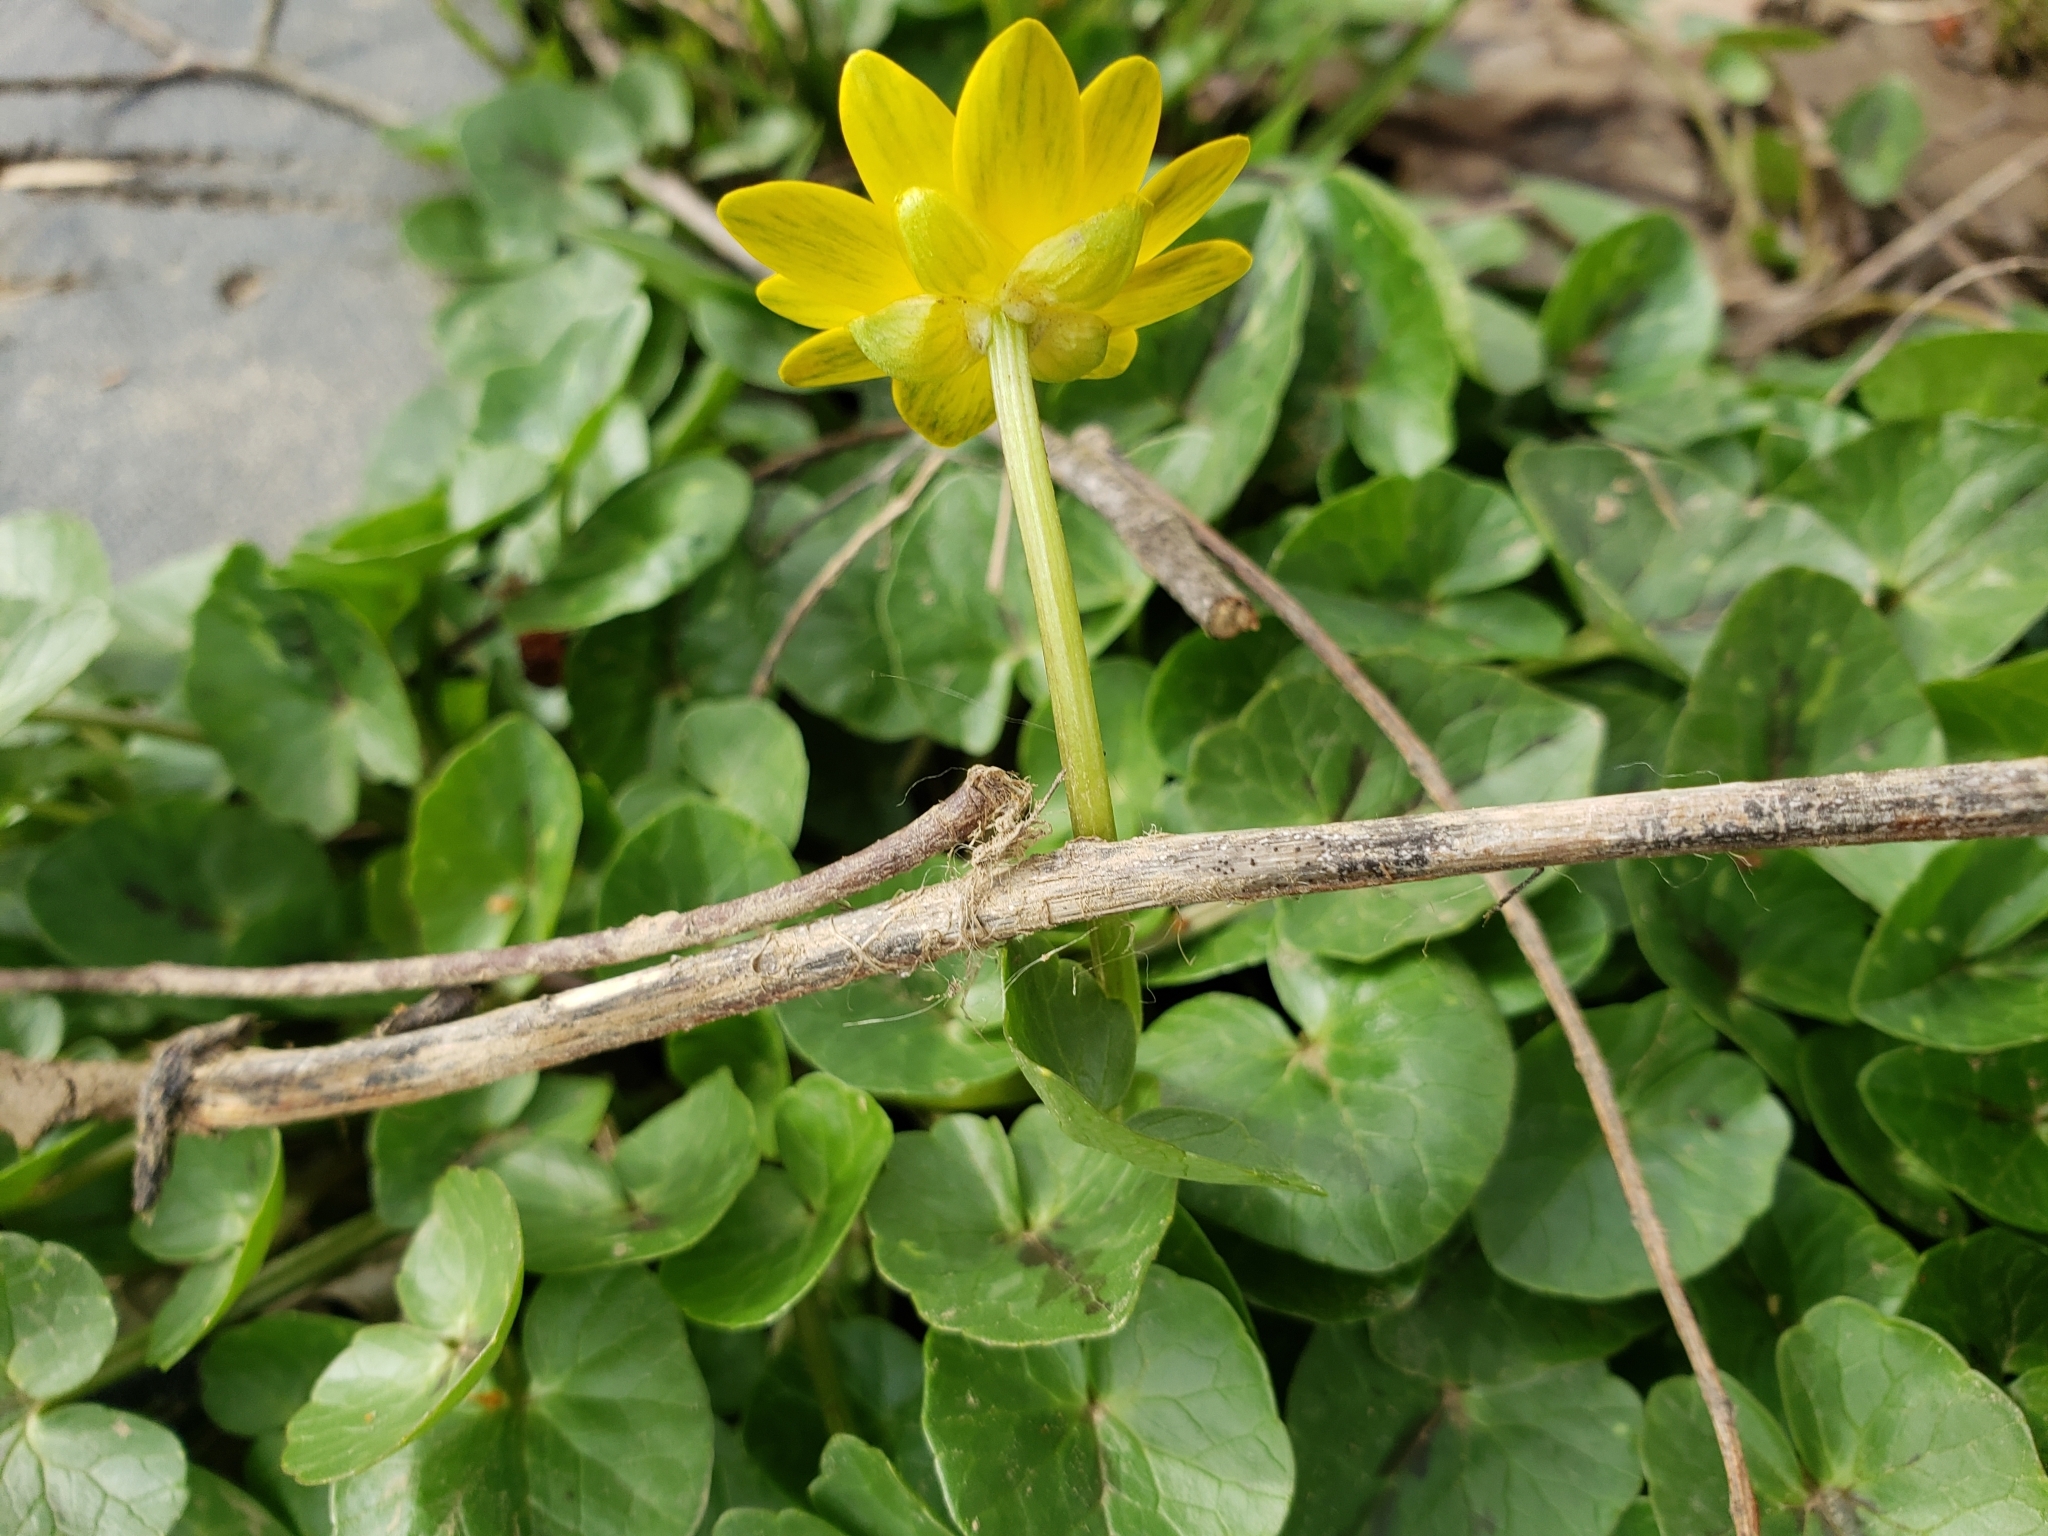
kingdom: Plantae
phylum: Tracheophyta
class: Magnoliopsida
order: Ranunculales
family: Ranunculaceae
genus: Ficaria
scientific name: Ficaria verna
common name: Lesser celandine
